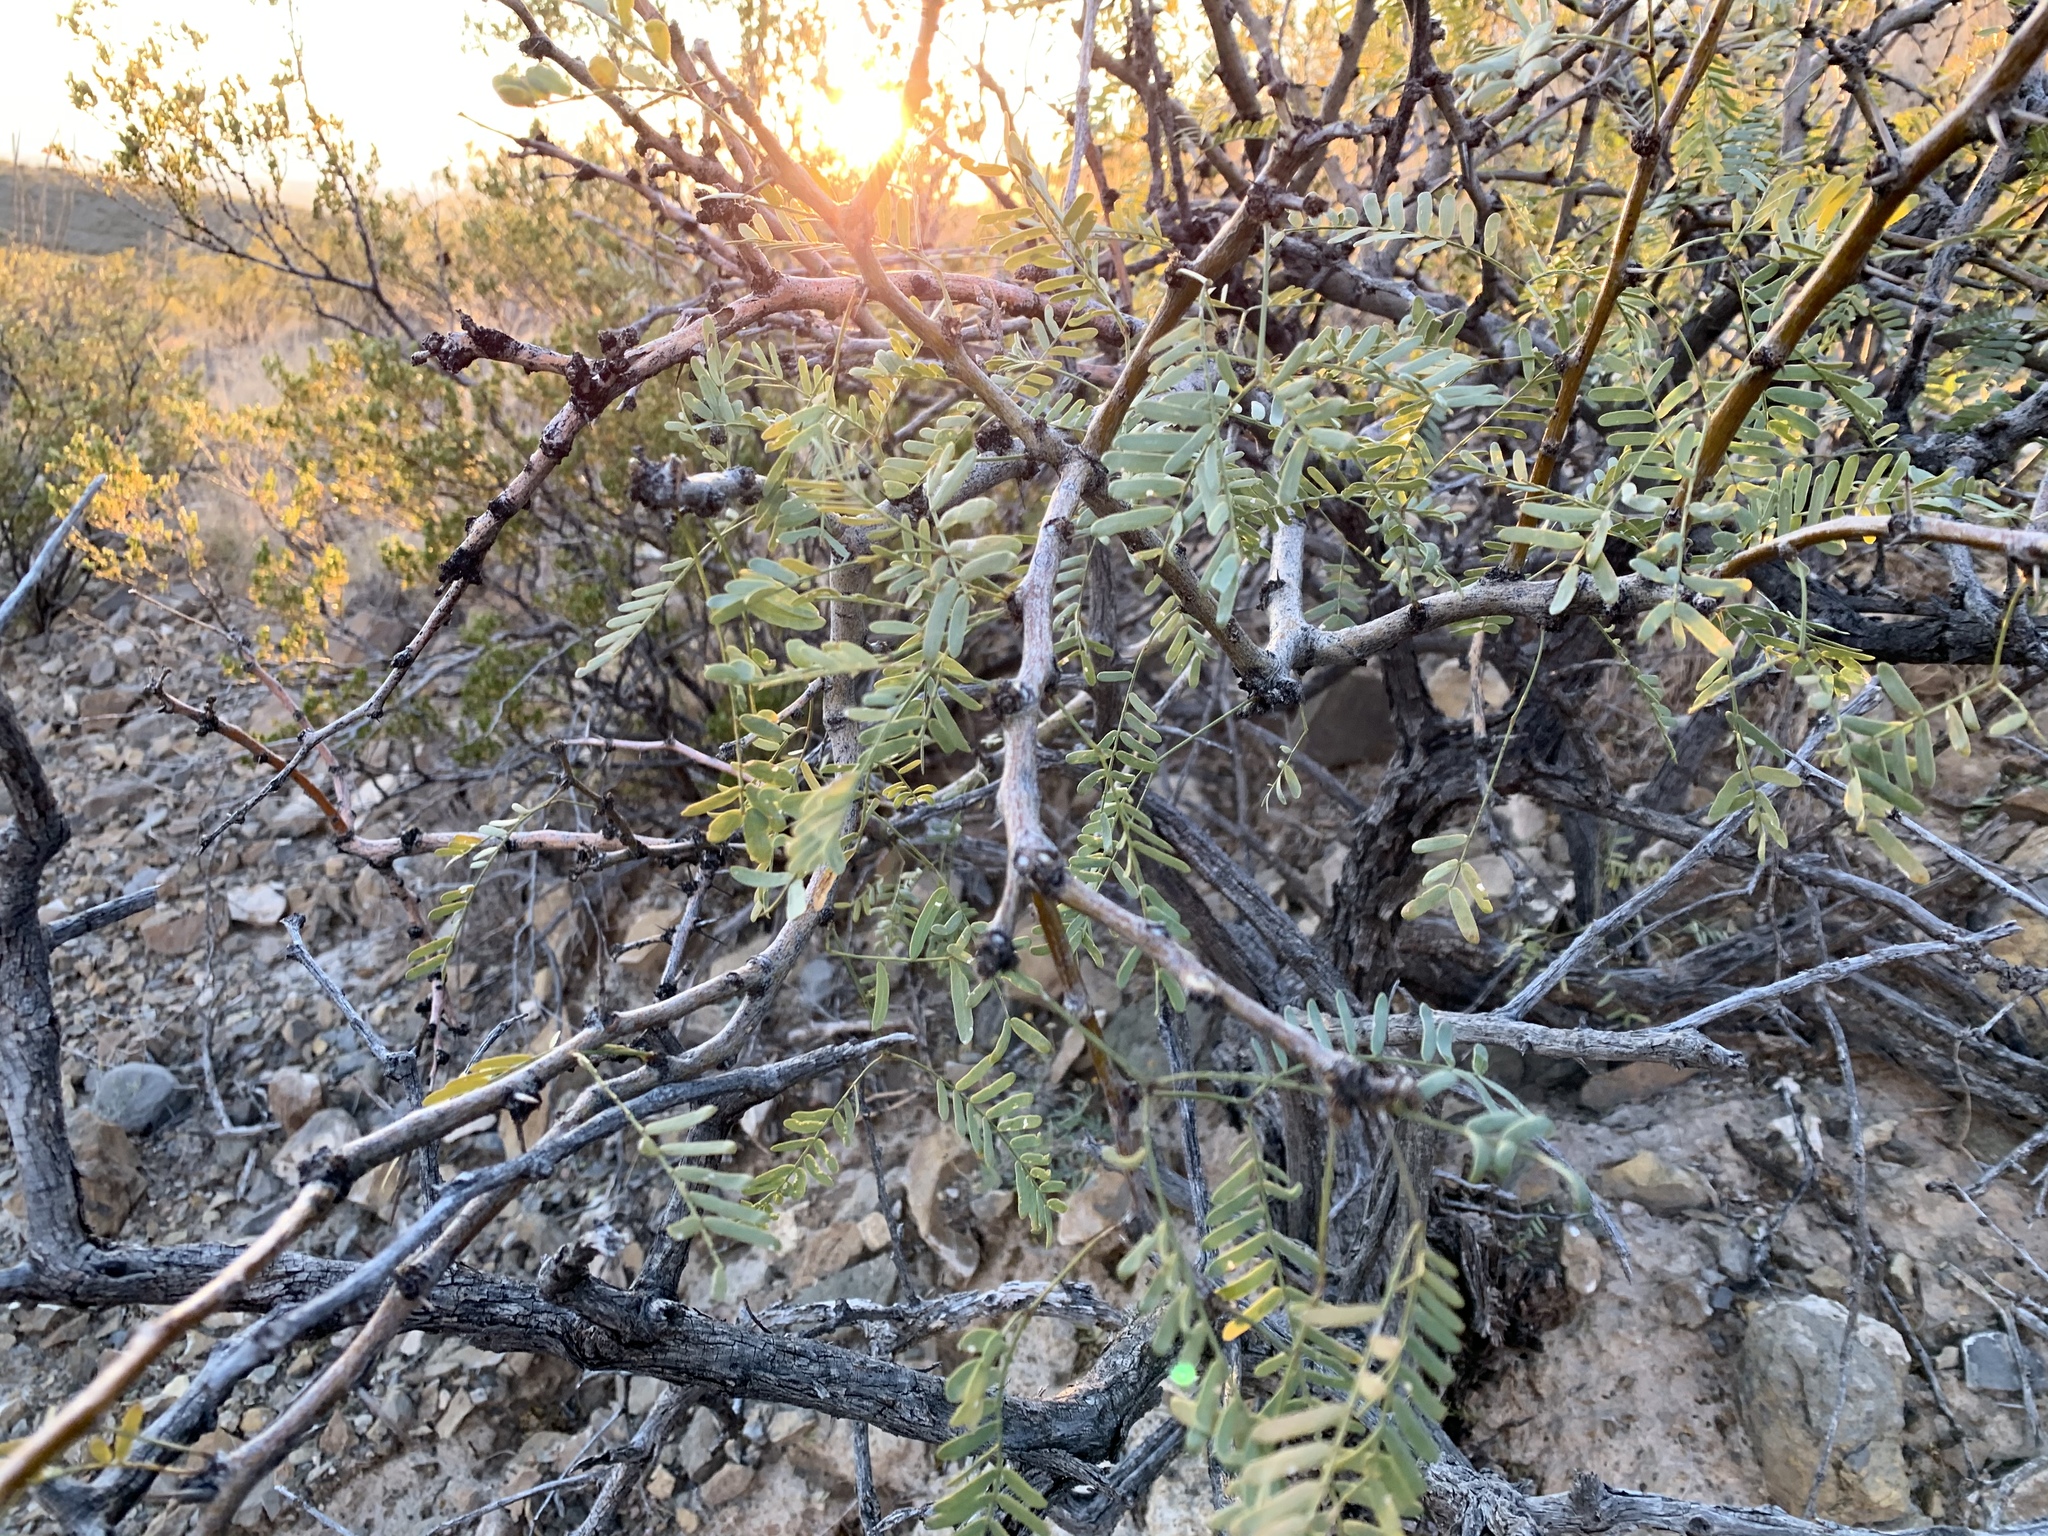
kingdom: Plantae
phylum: Tracheophyta
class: Magnoliopsida
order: Fabales
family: Fabaceae
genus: Prosopis
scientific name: Prosopis glandulosa
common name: Honey mesquite
